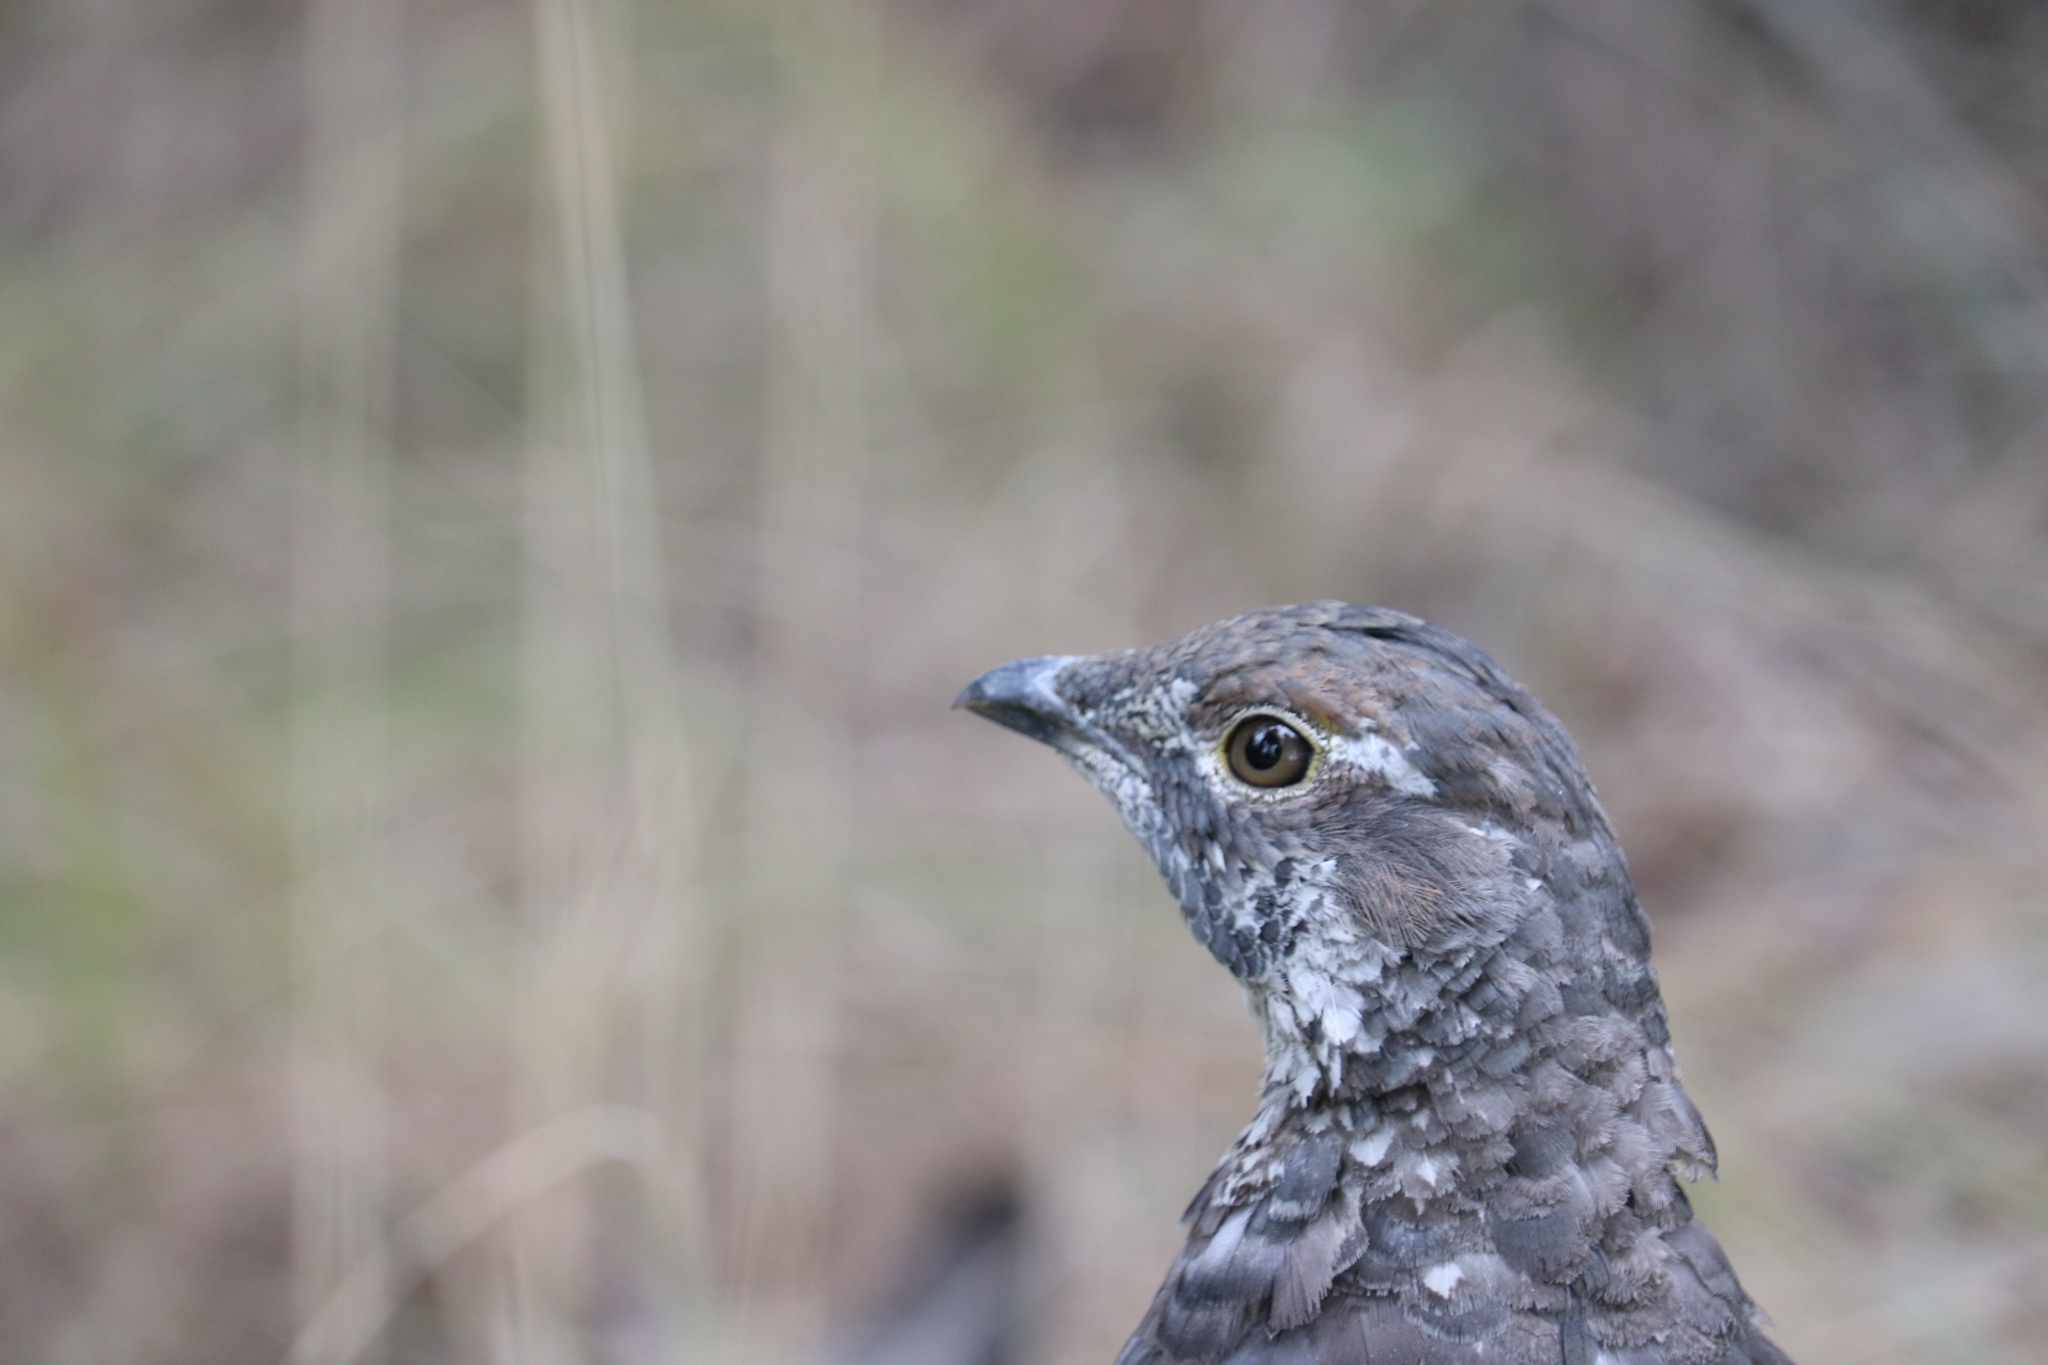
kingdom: Animalia
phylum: Chordata
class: Aves
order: Galliformes
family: Phasianidae
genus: Dendragapus
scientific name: Dendragapus obscurus
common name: Dusky grouse
